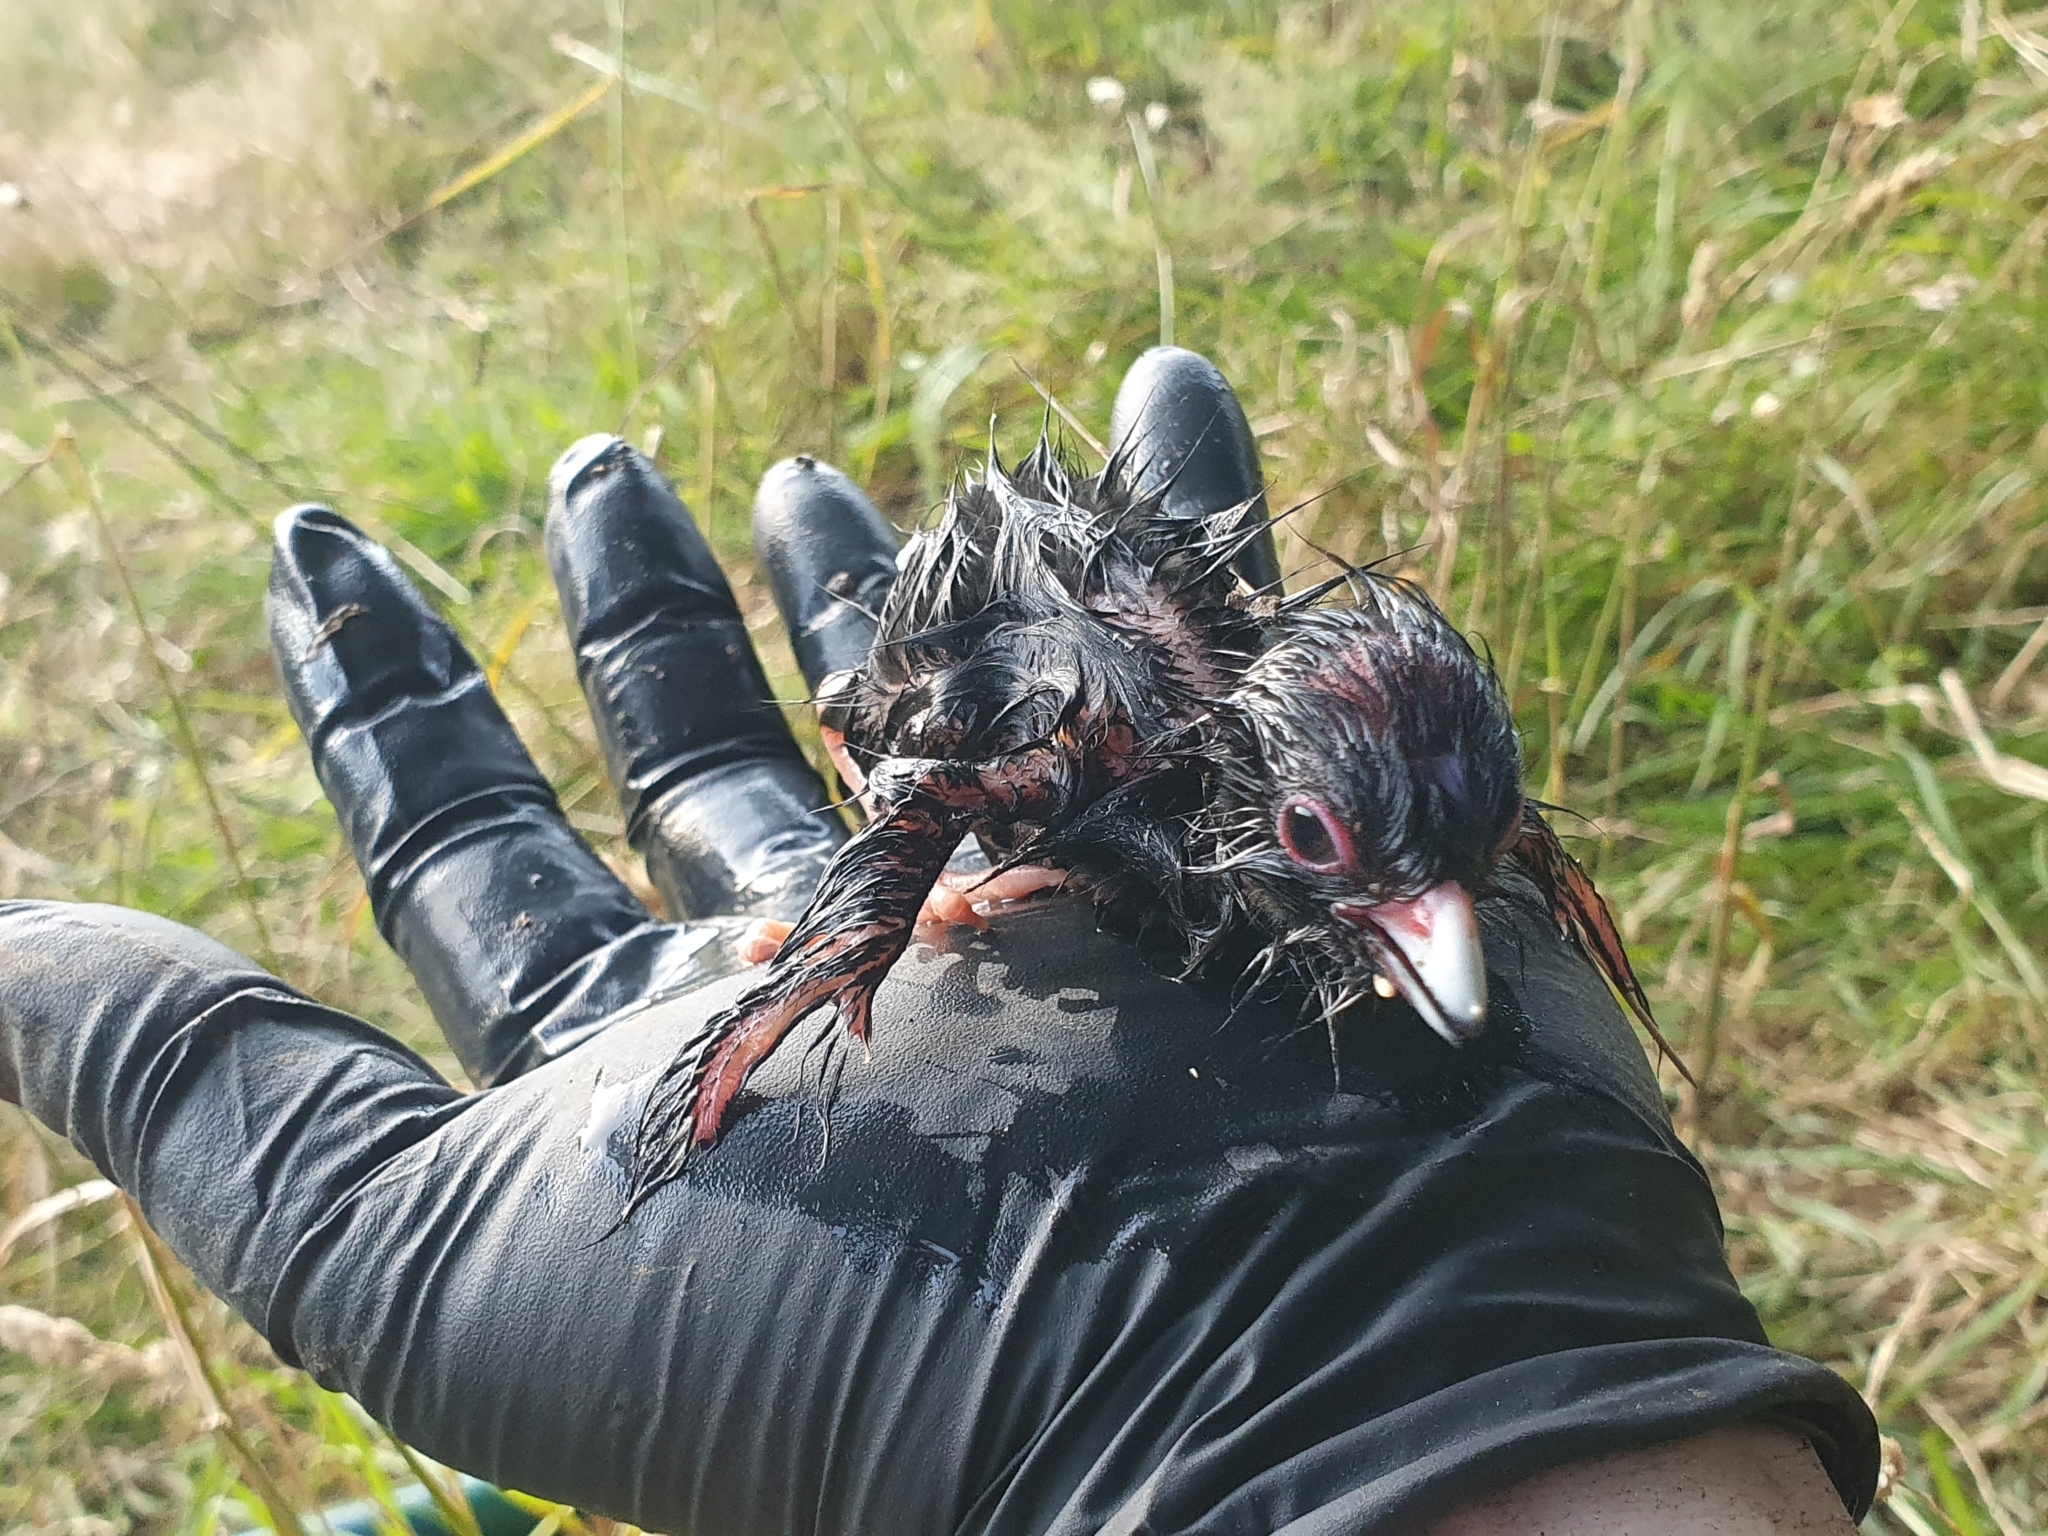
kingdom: Animalia
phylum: Chordata
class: Aves
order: Gruiformes
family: Rallidae
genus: Porphyrio
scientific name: Porphyrio melanotus
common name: Australasian swamphen
